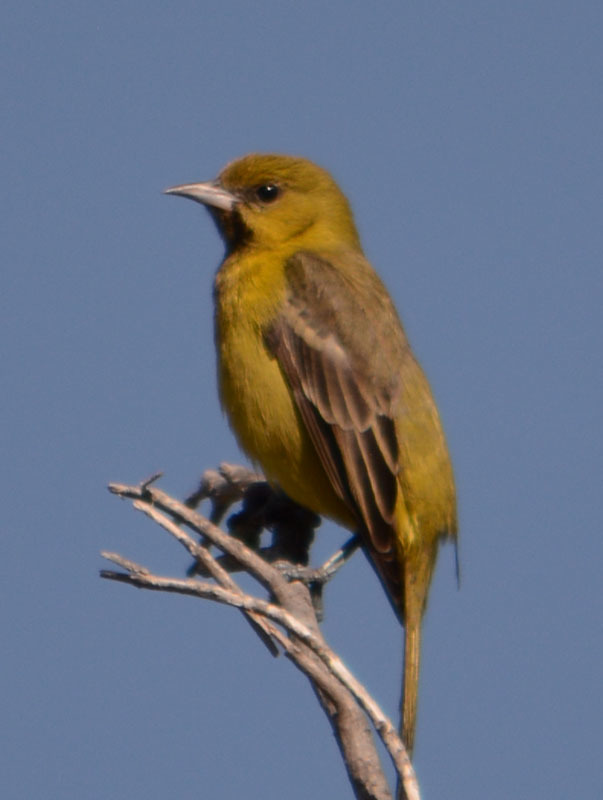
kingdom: Animalia
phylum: Chordata
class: Aves
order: Passeriformes
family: Icteridae
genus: Icterus
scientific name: Icterus spurius
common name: Orchard oriole
